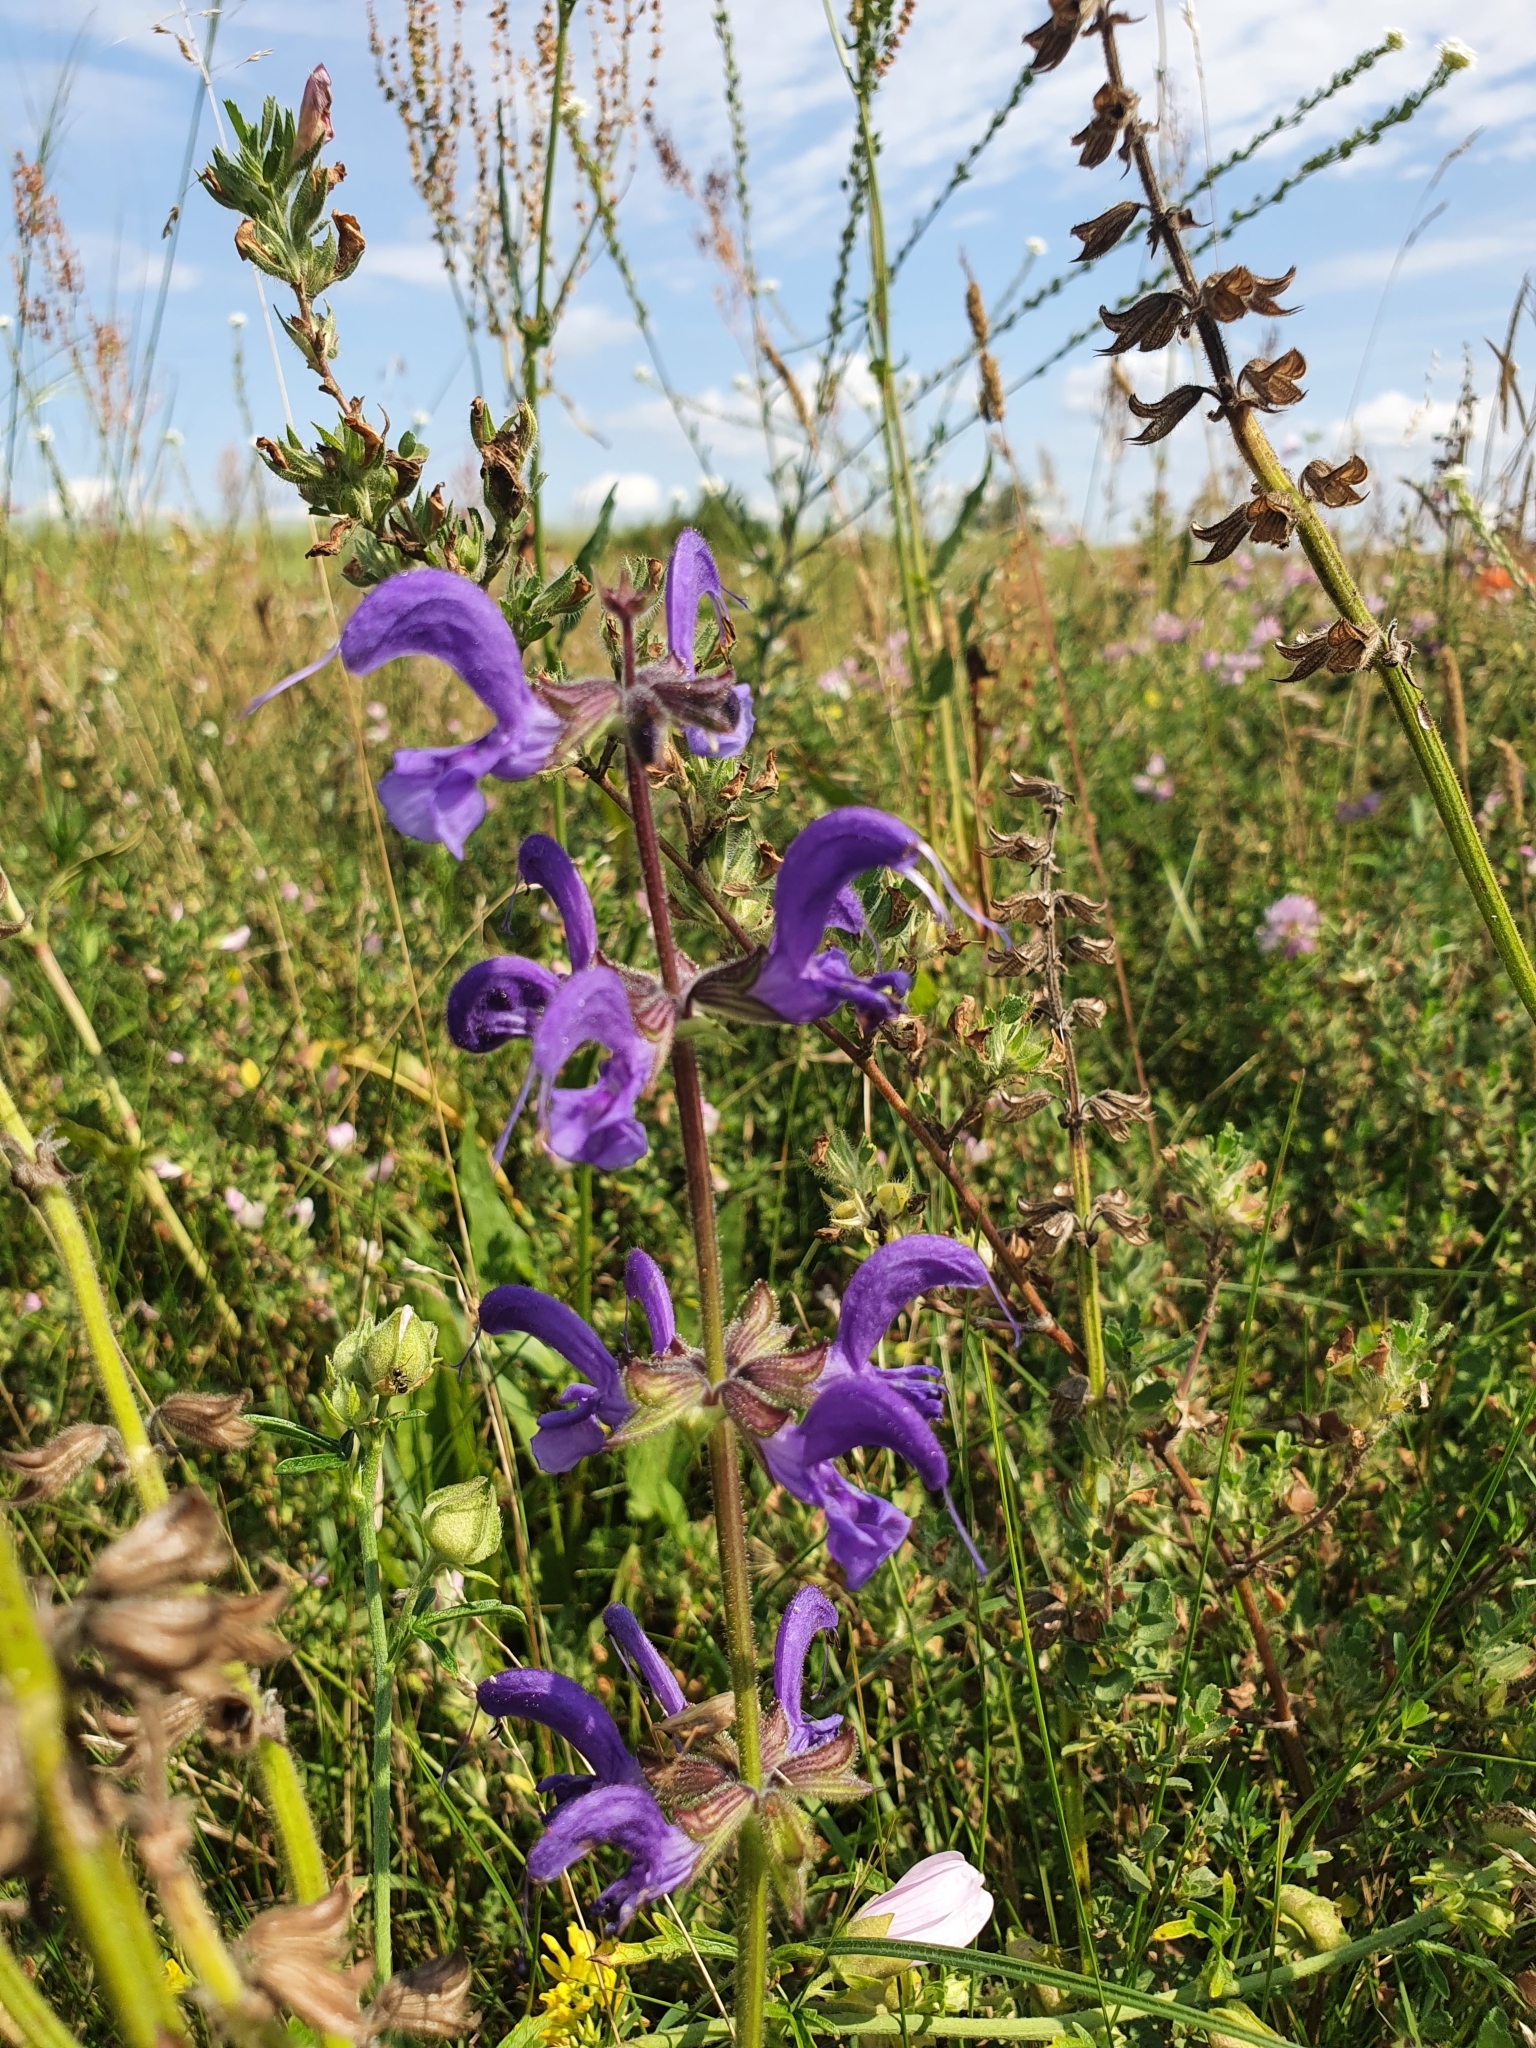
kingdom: Plantae
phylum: Tracheophyta
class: Magnoliopsida
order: Lamiales
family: Lamiaceae
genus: Salvia
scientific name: Salvia pratensis
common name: Meadow sage
